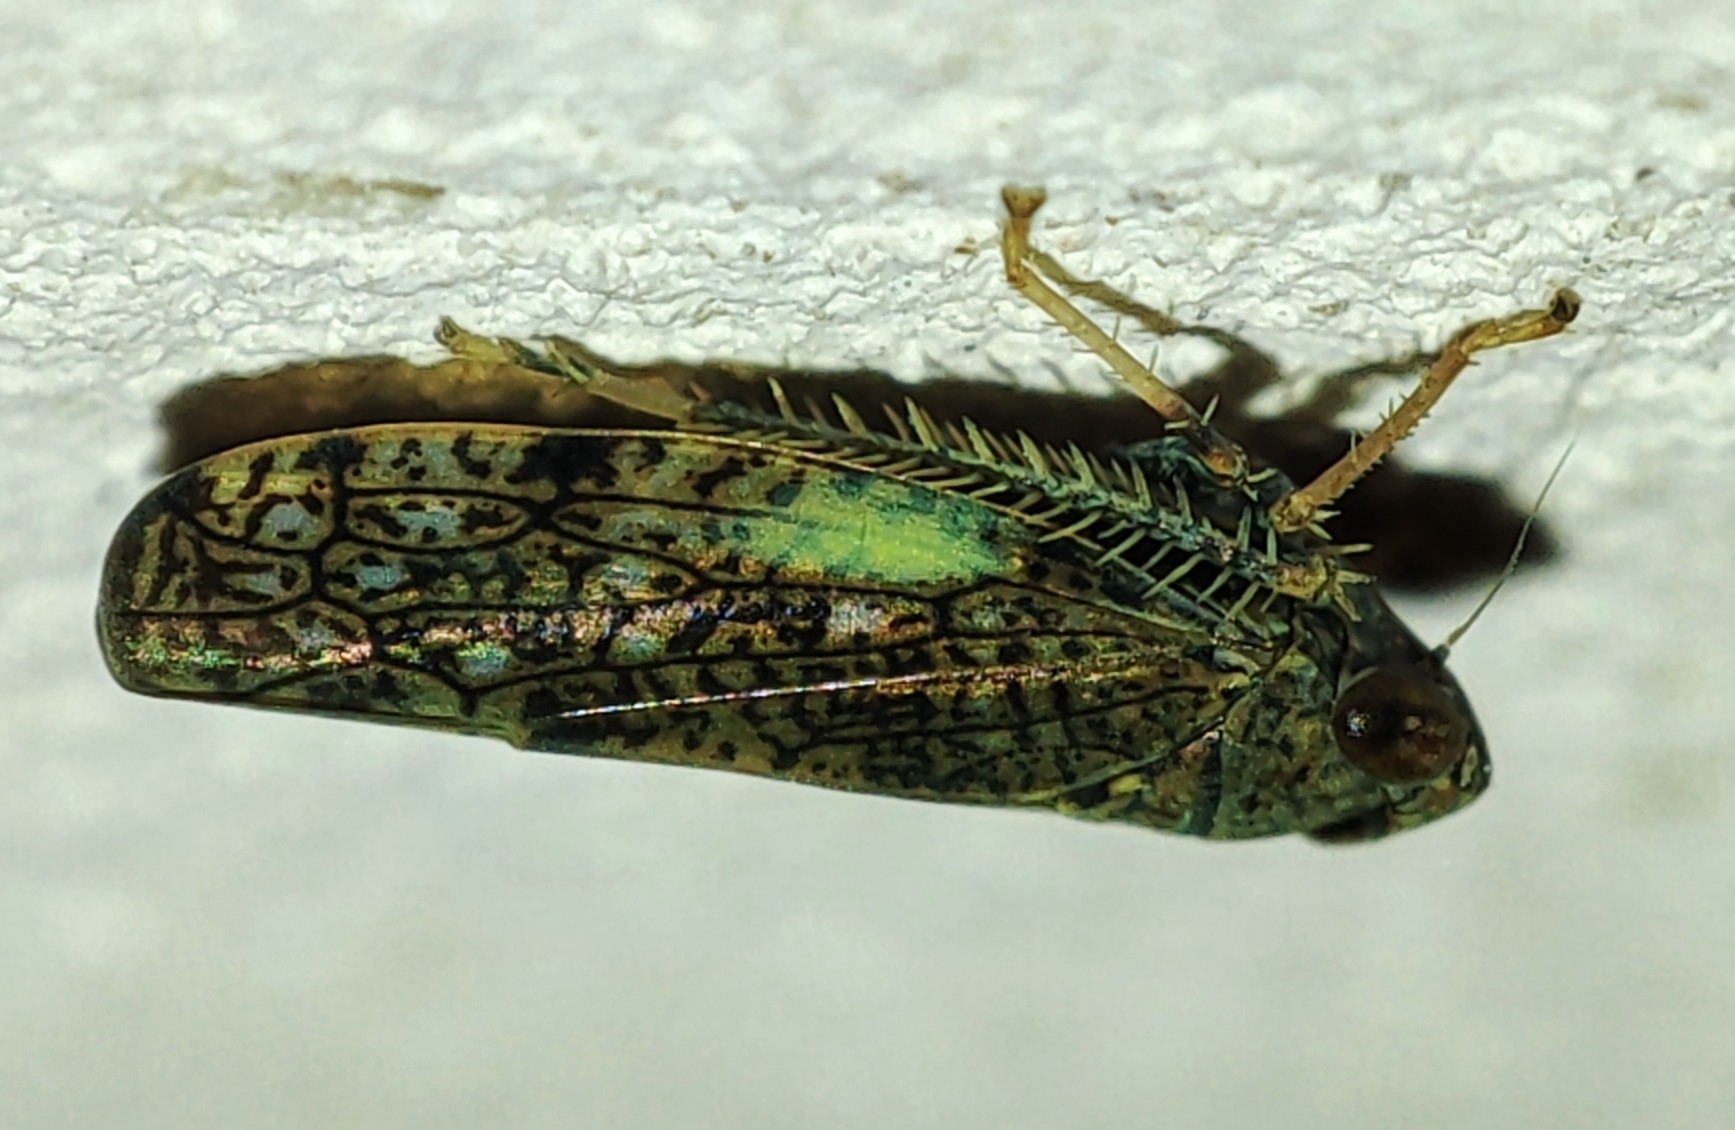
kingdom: Animalia
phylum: Arthropoda
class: Insecta
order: Hemiptera
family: Cicadellidae
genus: Orientus
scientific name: Orientus ishidae
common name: Japanese leafhopper
